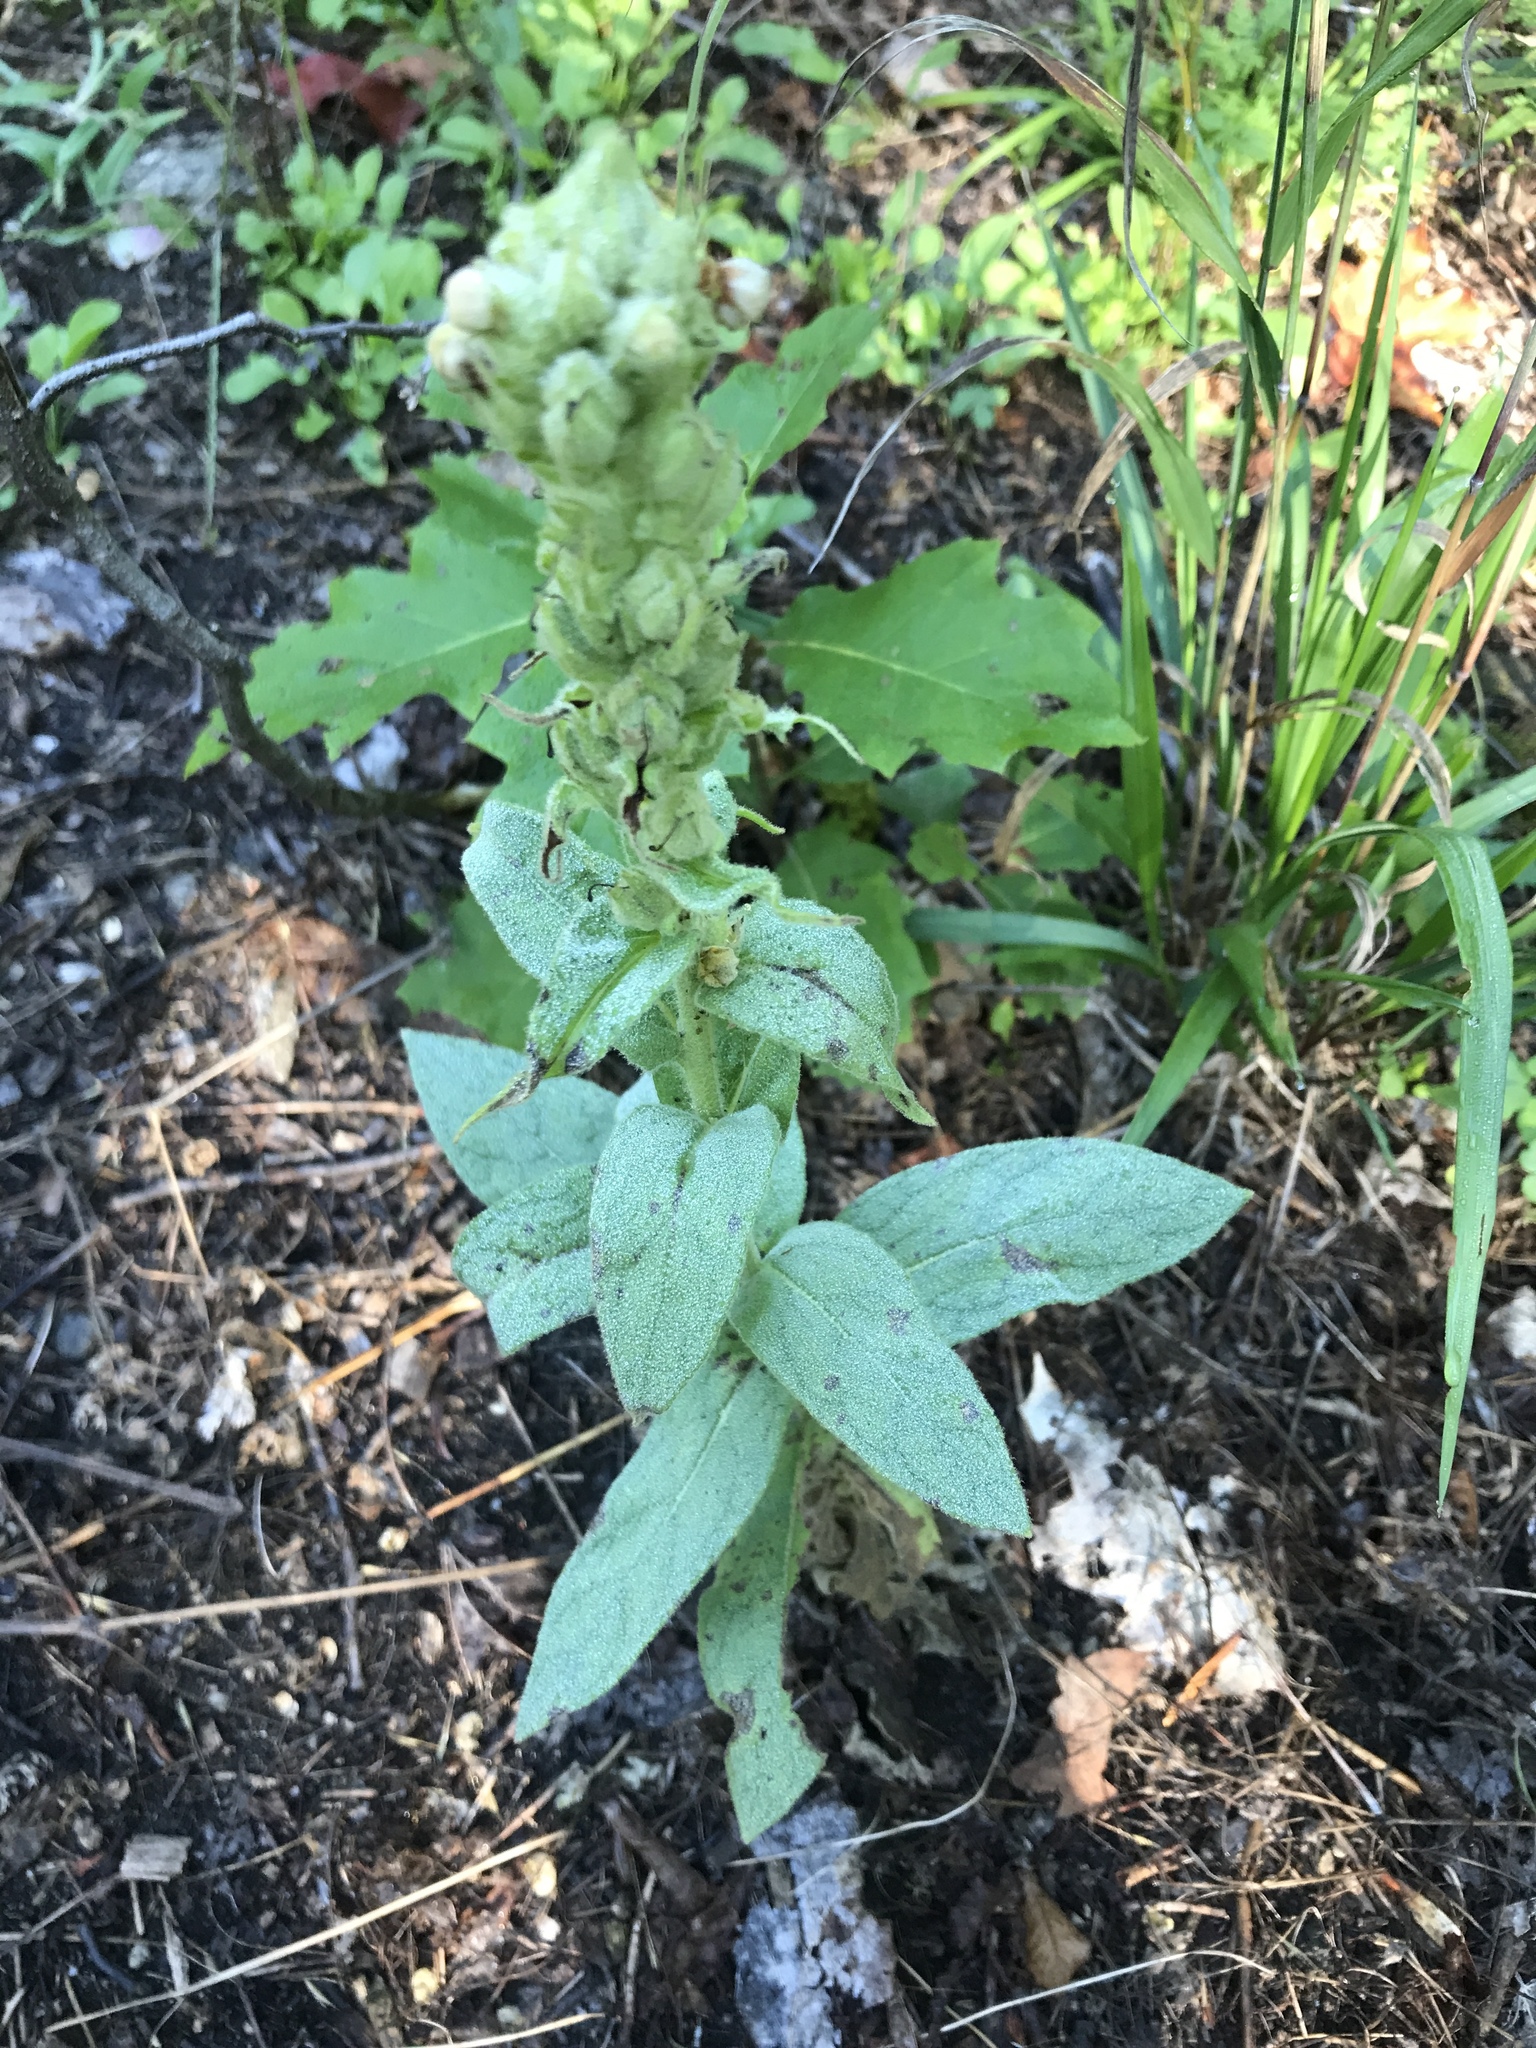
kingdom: Plantae
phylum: Tracheophyta
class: Magnoliopsida
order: Lamiales
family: Scrophulariaceae
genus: Verbascum
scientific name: Verbascum thapsus
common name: Common mullein
